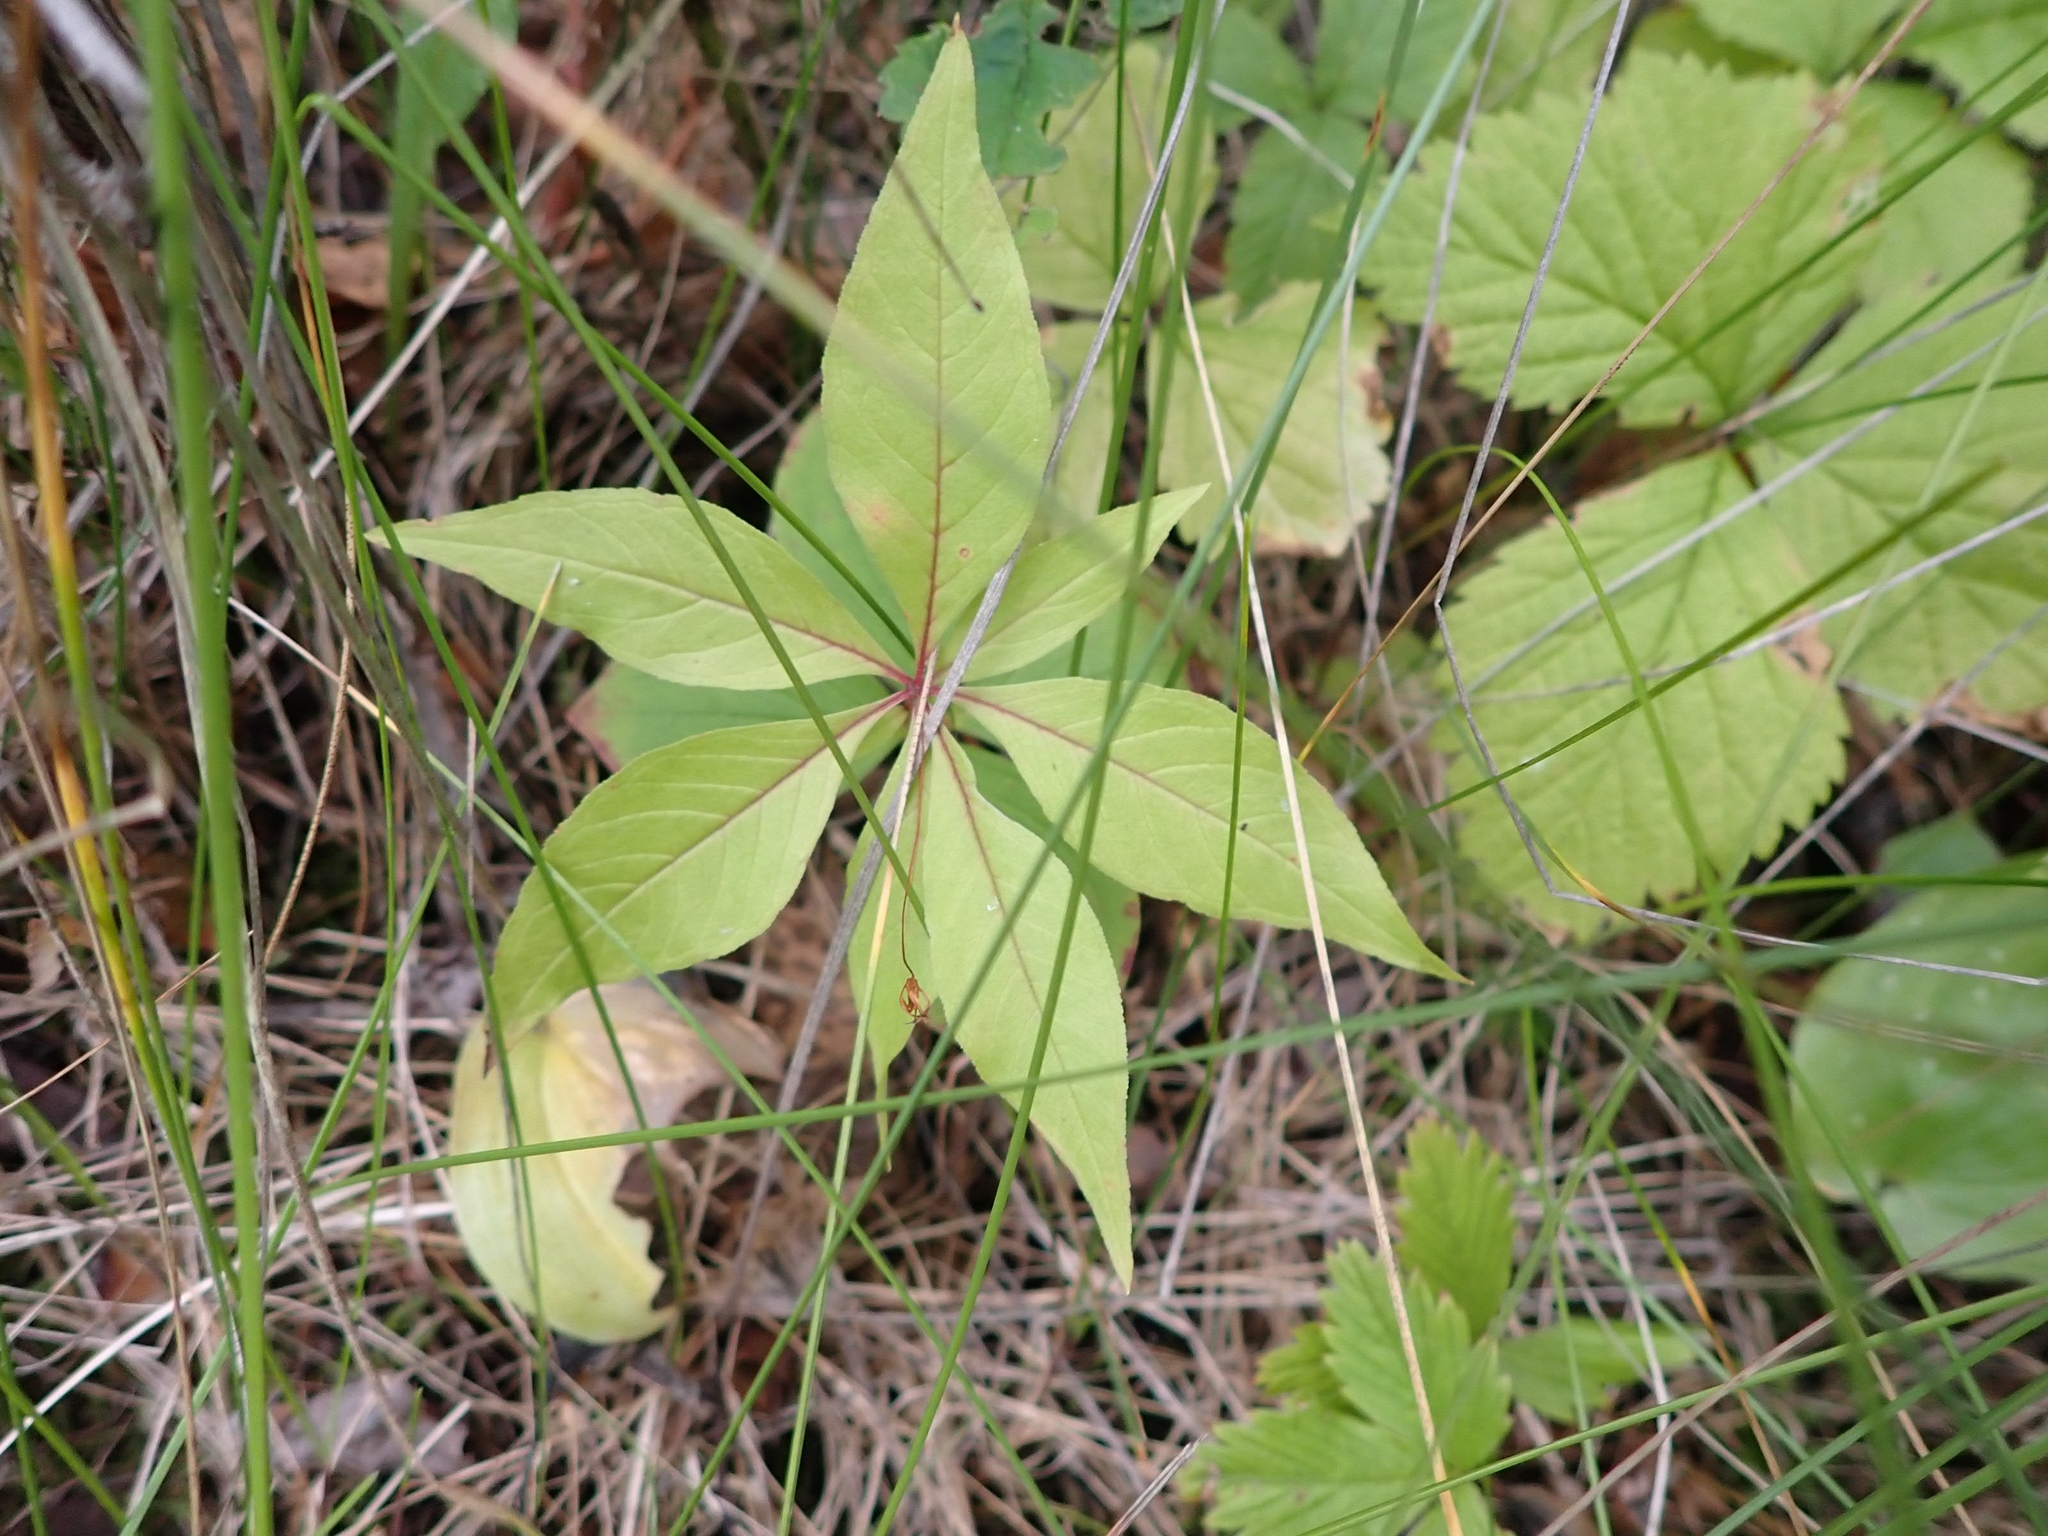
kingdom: Plantae
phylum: Tracheophyta
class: Magnoliopsida
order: Ericales
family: Primulaceae
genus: Lysimachia
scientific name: Lysimachia borealis
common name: American starflower
